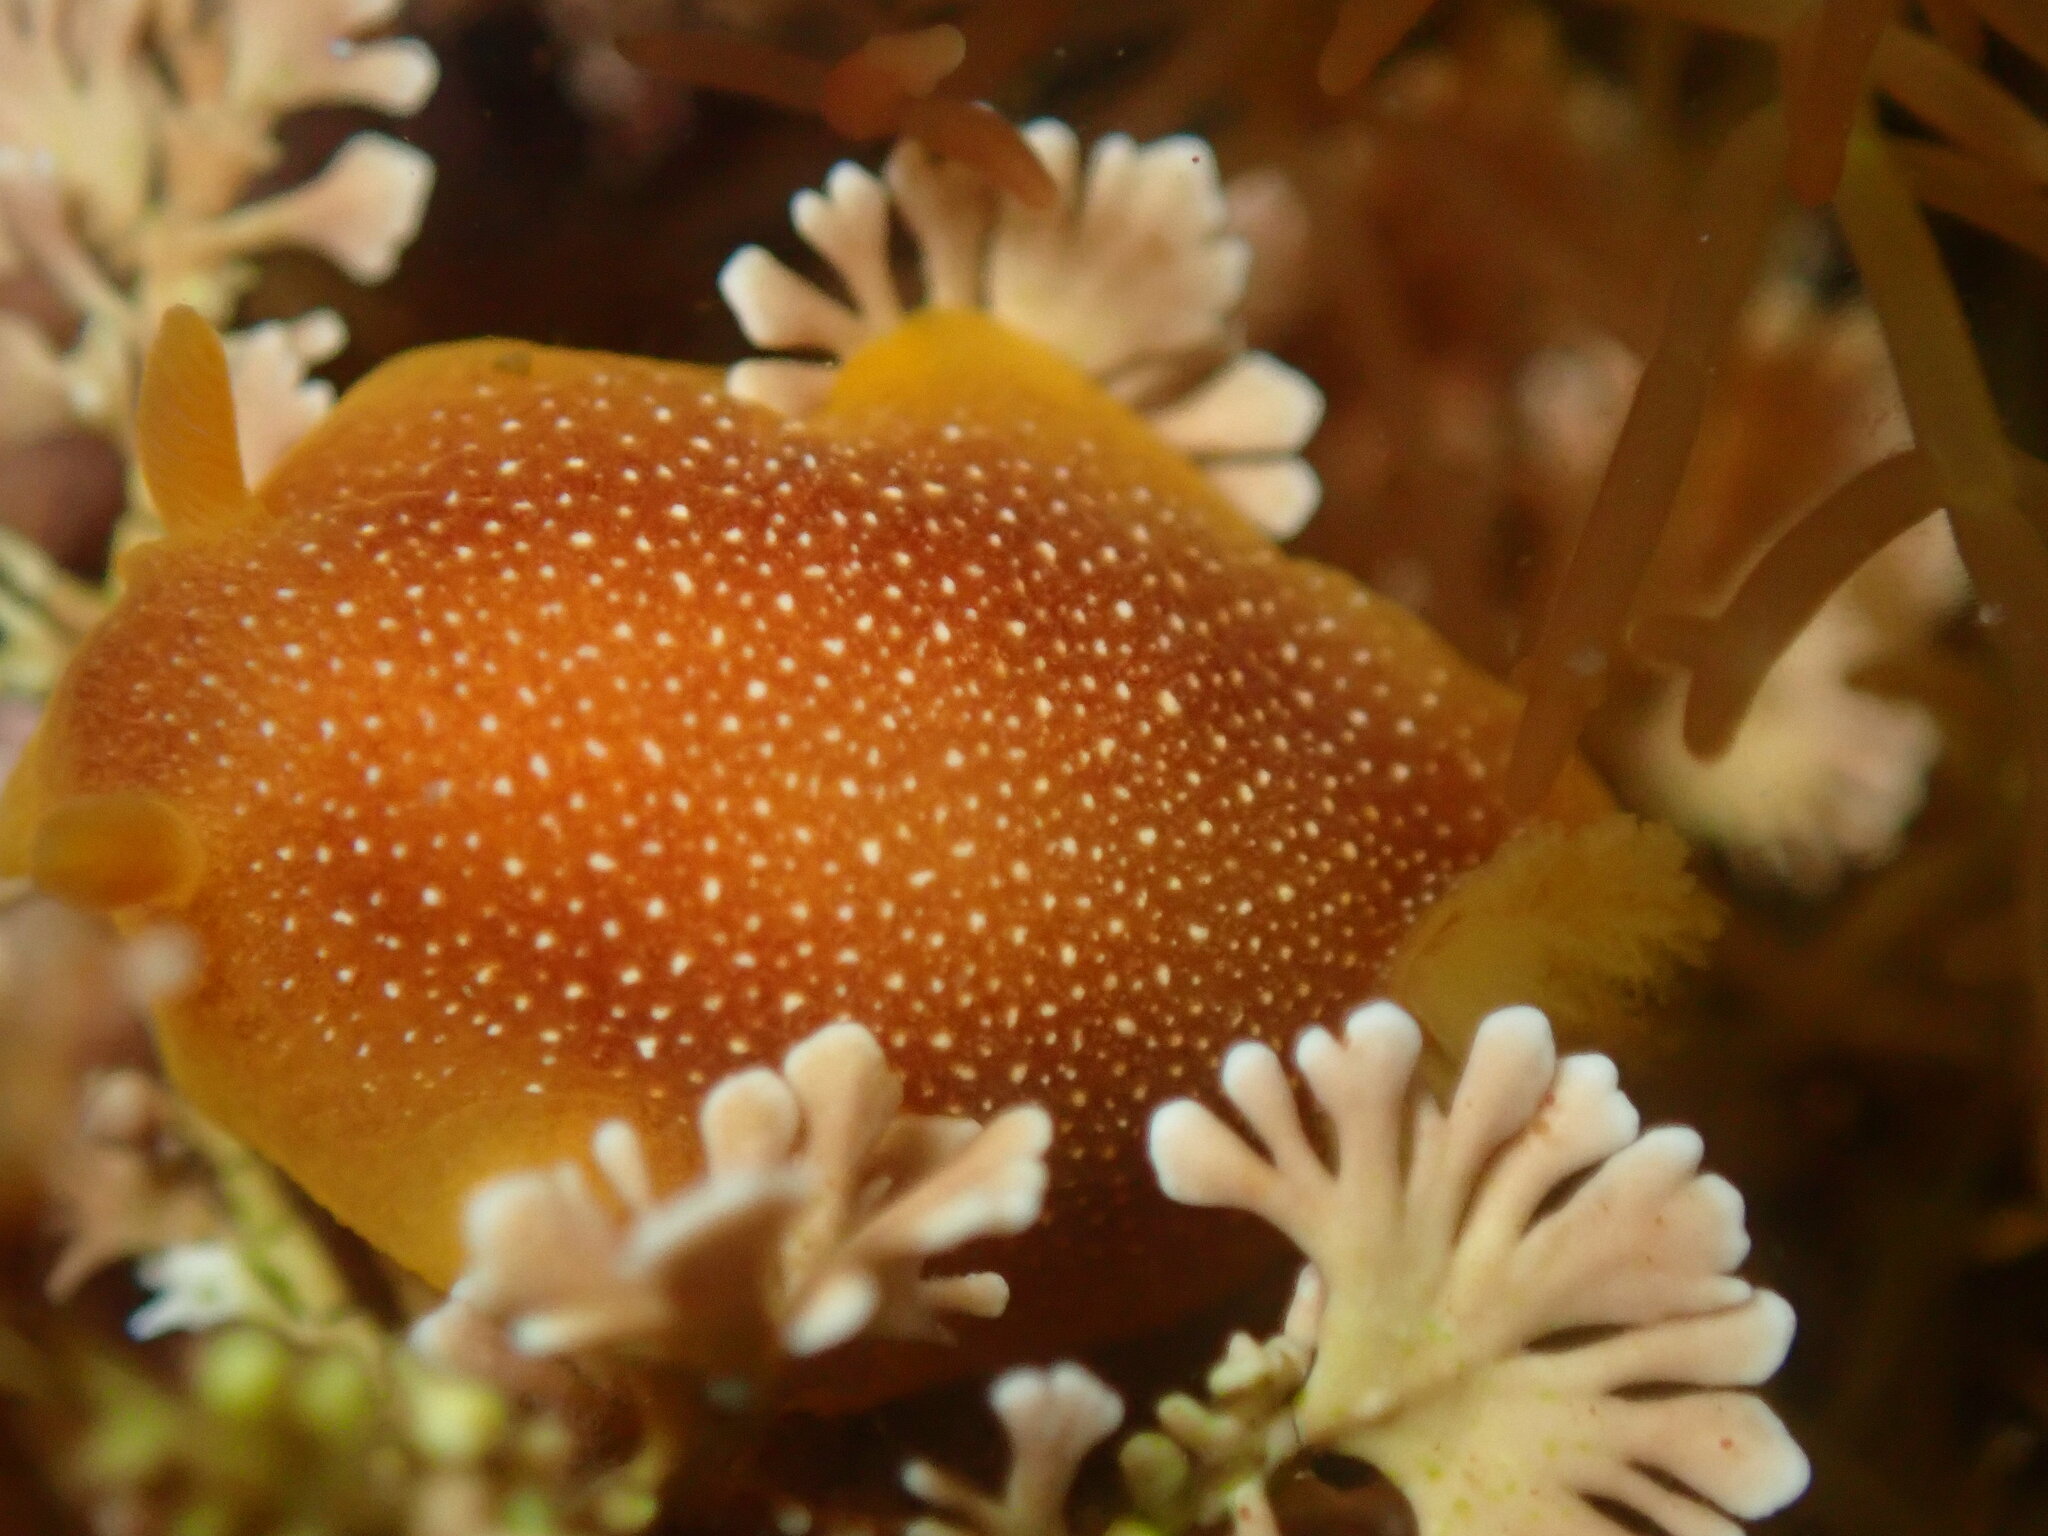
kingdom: Animalia
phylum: Mollusca
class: Gastropoda
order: Nudibranchia
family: Dendrodorididae
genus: Doriopsilla
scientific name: Doriopsilla gemela
